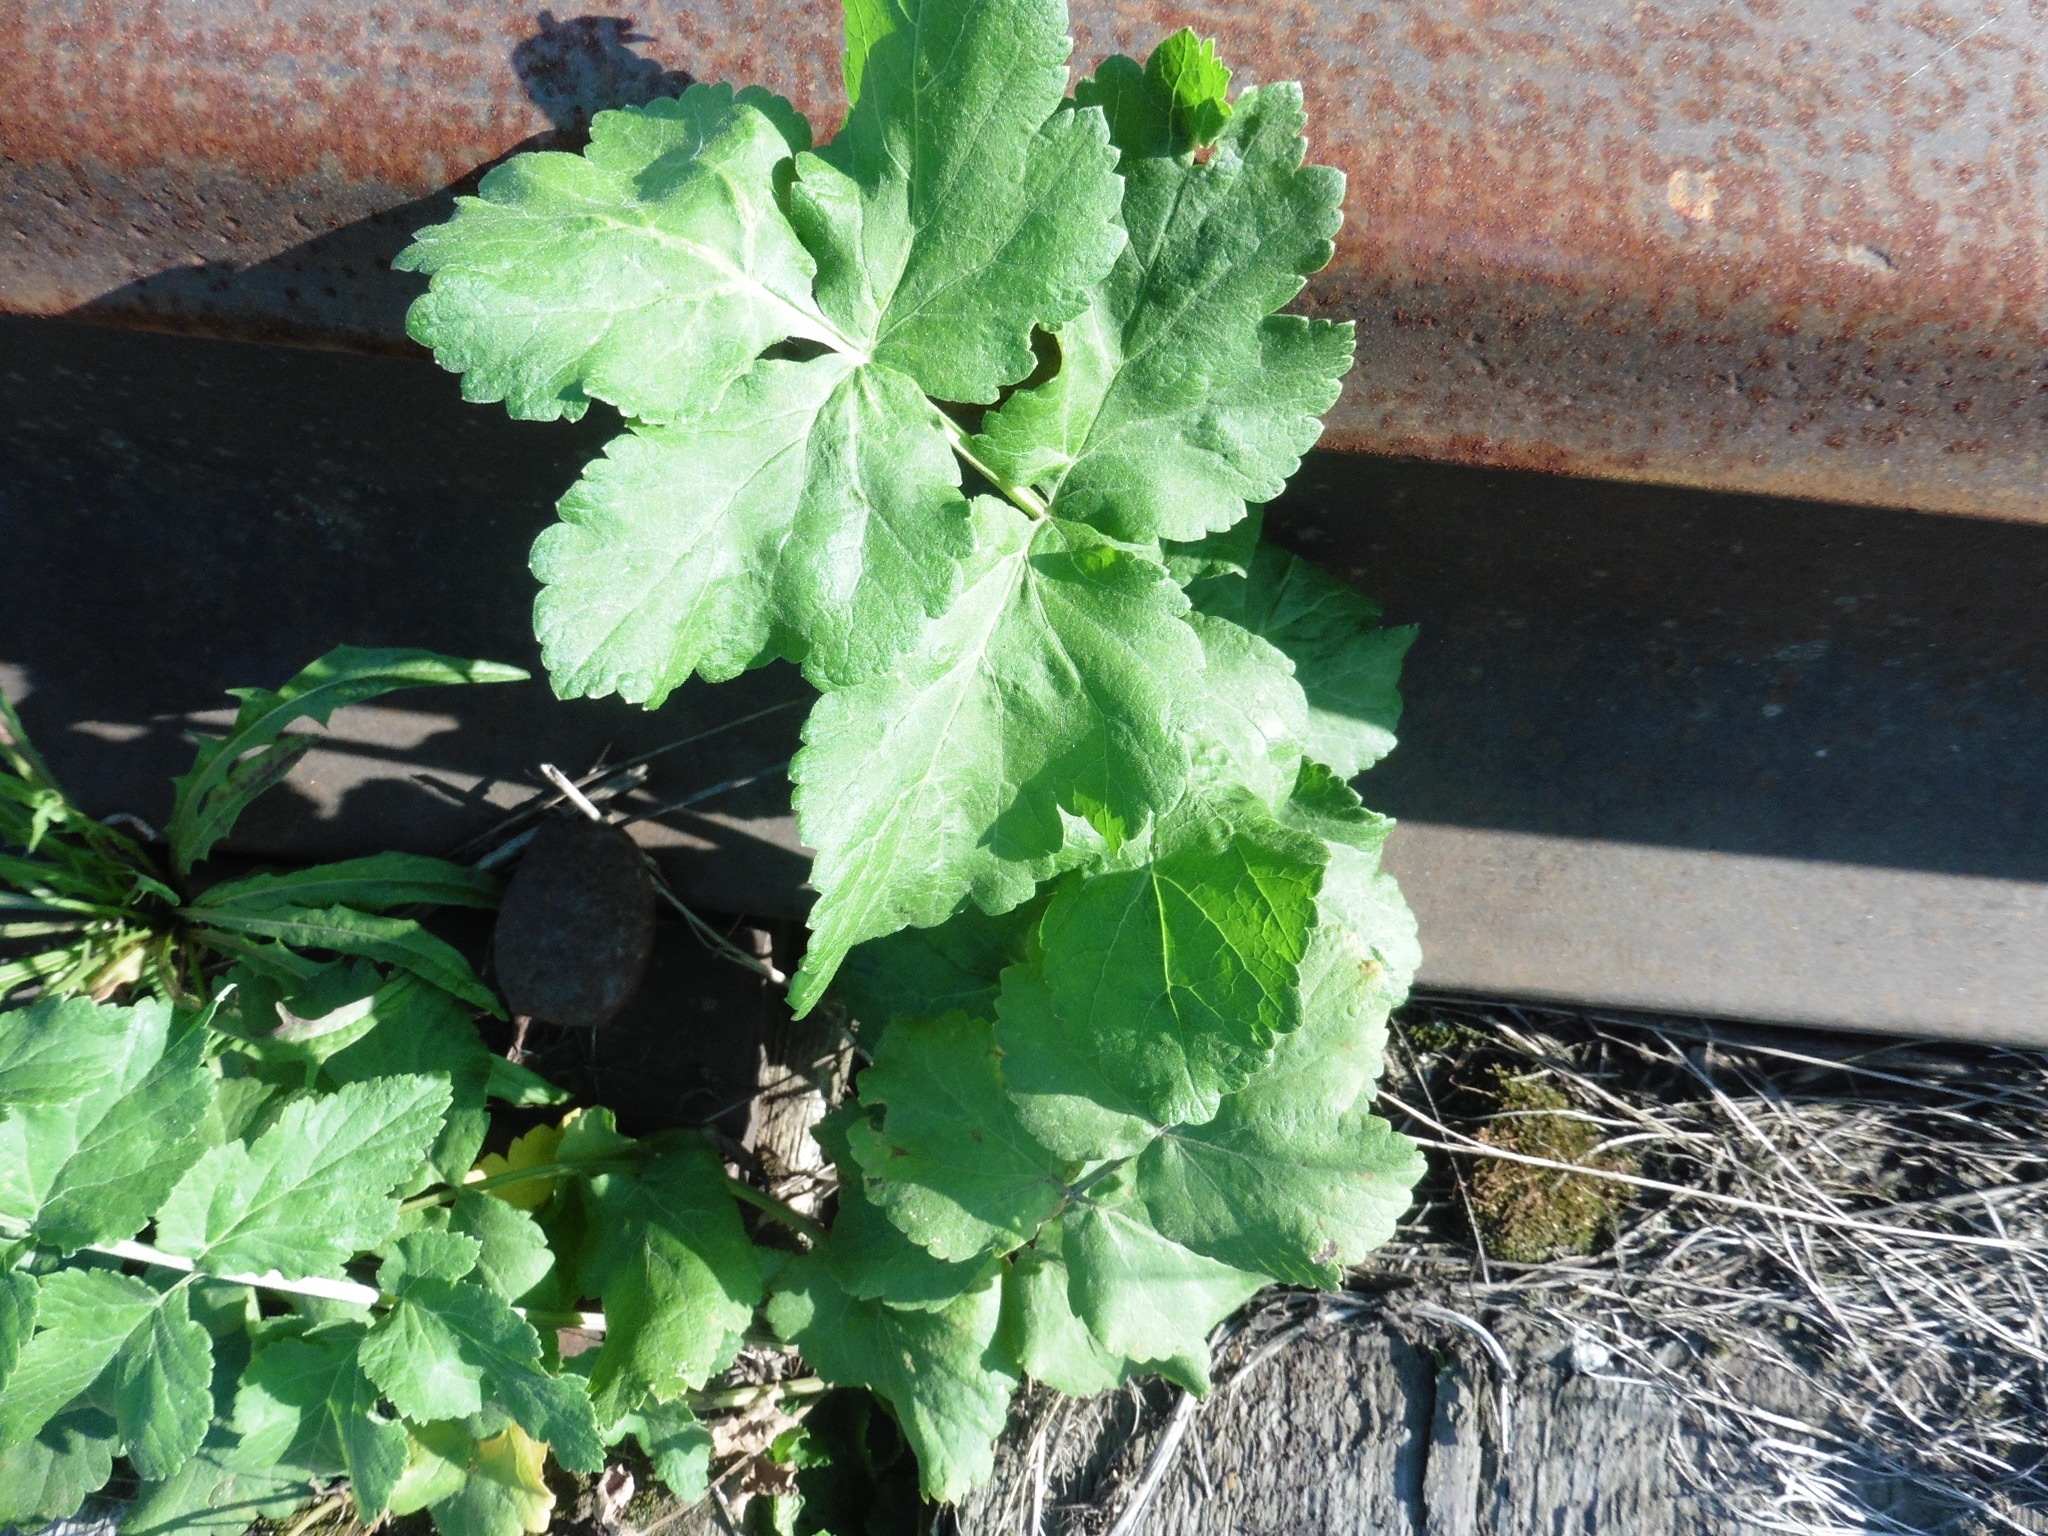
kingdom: Plantae
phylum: Tracheophyta
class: Magnoliopsida
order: Apiales
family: Apiaceae
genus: Pastinaca
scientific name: Pastinaca sativa
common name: Wild parsnip
